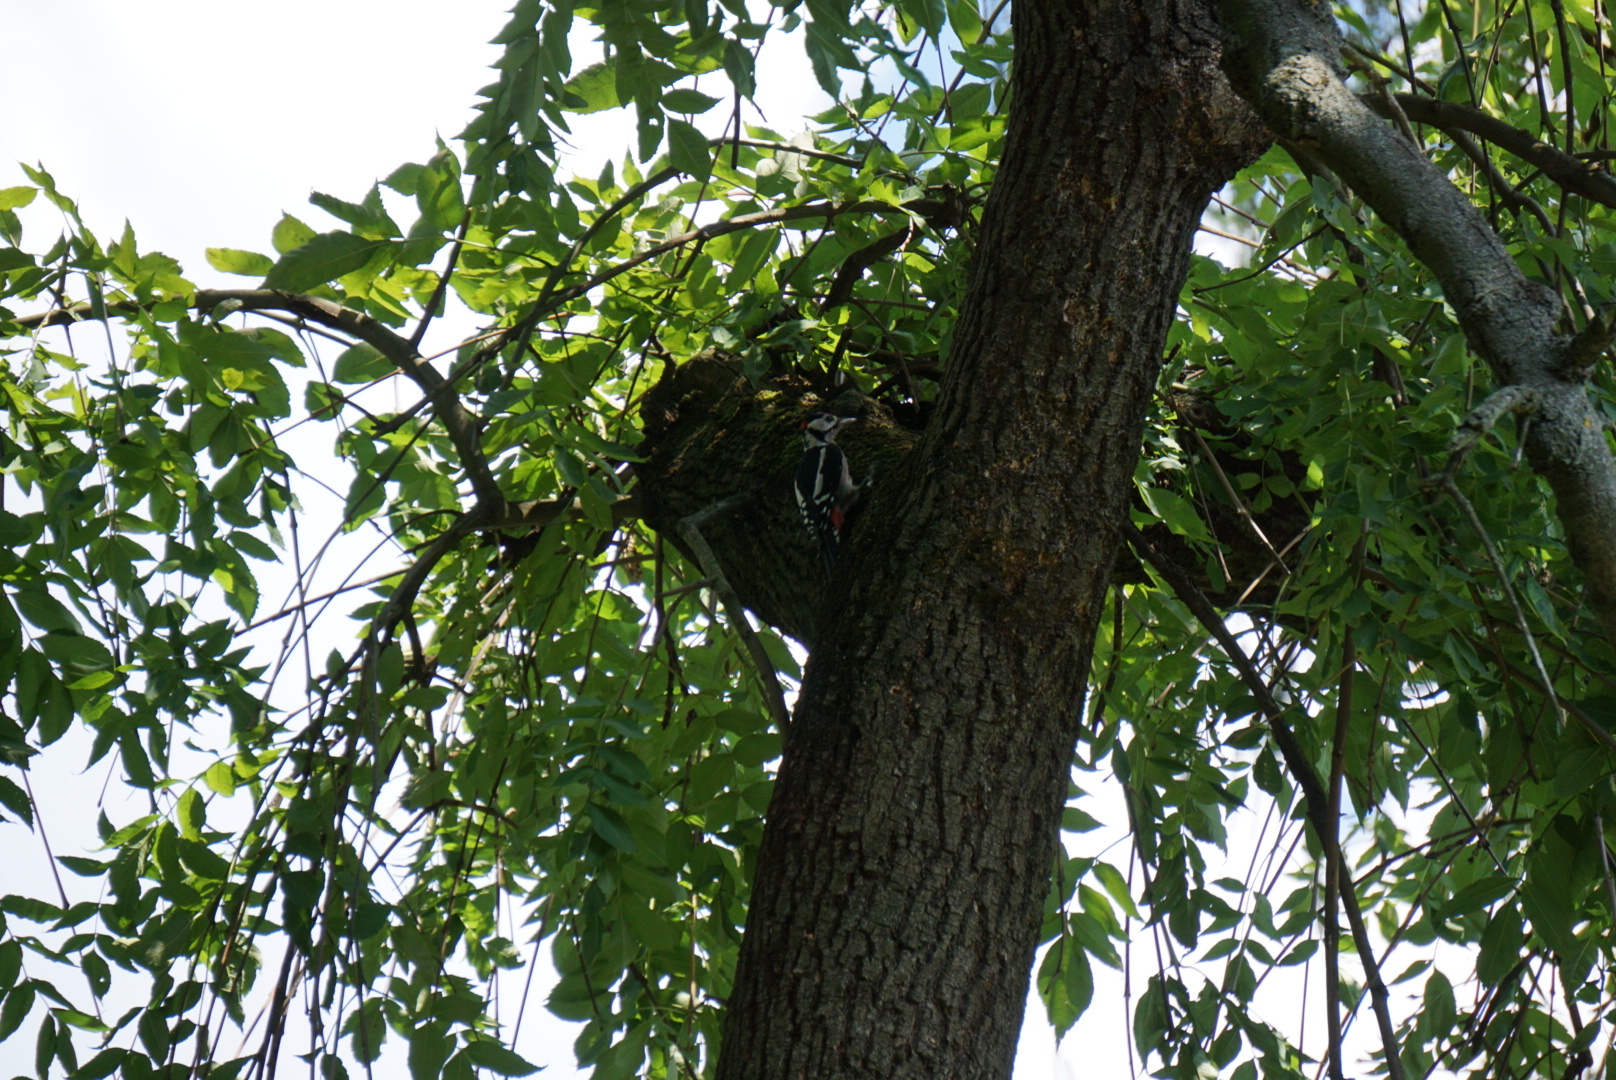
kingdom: Animalia
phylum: Chordata
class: Aves
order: Piciformes
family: Picidae
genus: Dendrocopos
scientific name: Dendrocopos major
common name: Great spotted woodpecker
